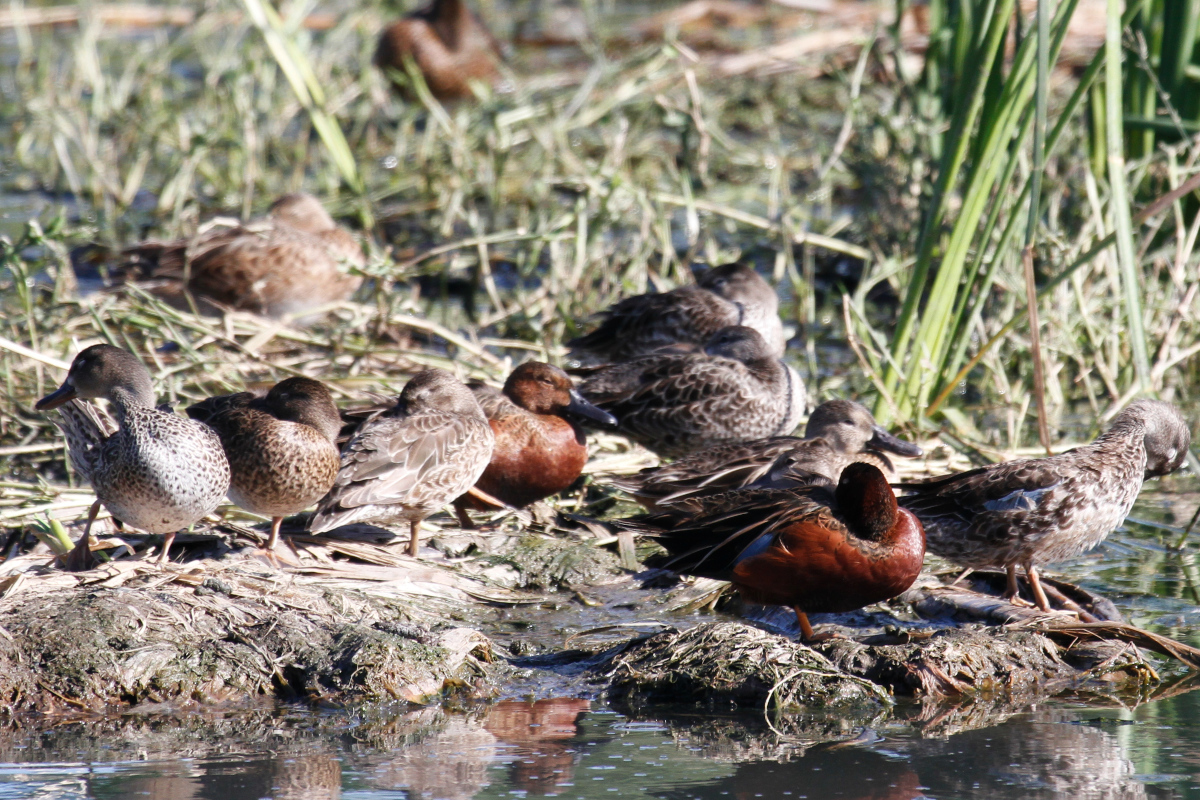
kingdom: Animalia
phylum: Chordata
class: Aves
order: Anseriformes
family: Anatidae
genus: Spatula
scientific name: Spatula cyanoptera
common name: Cinnamon teal
